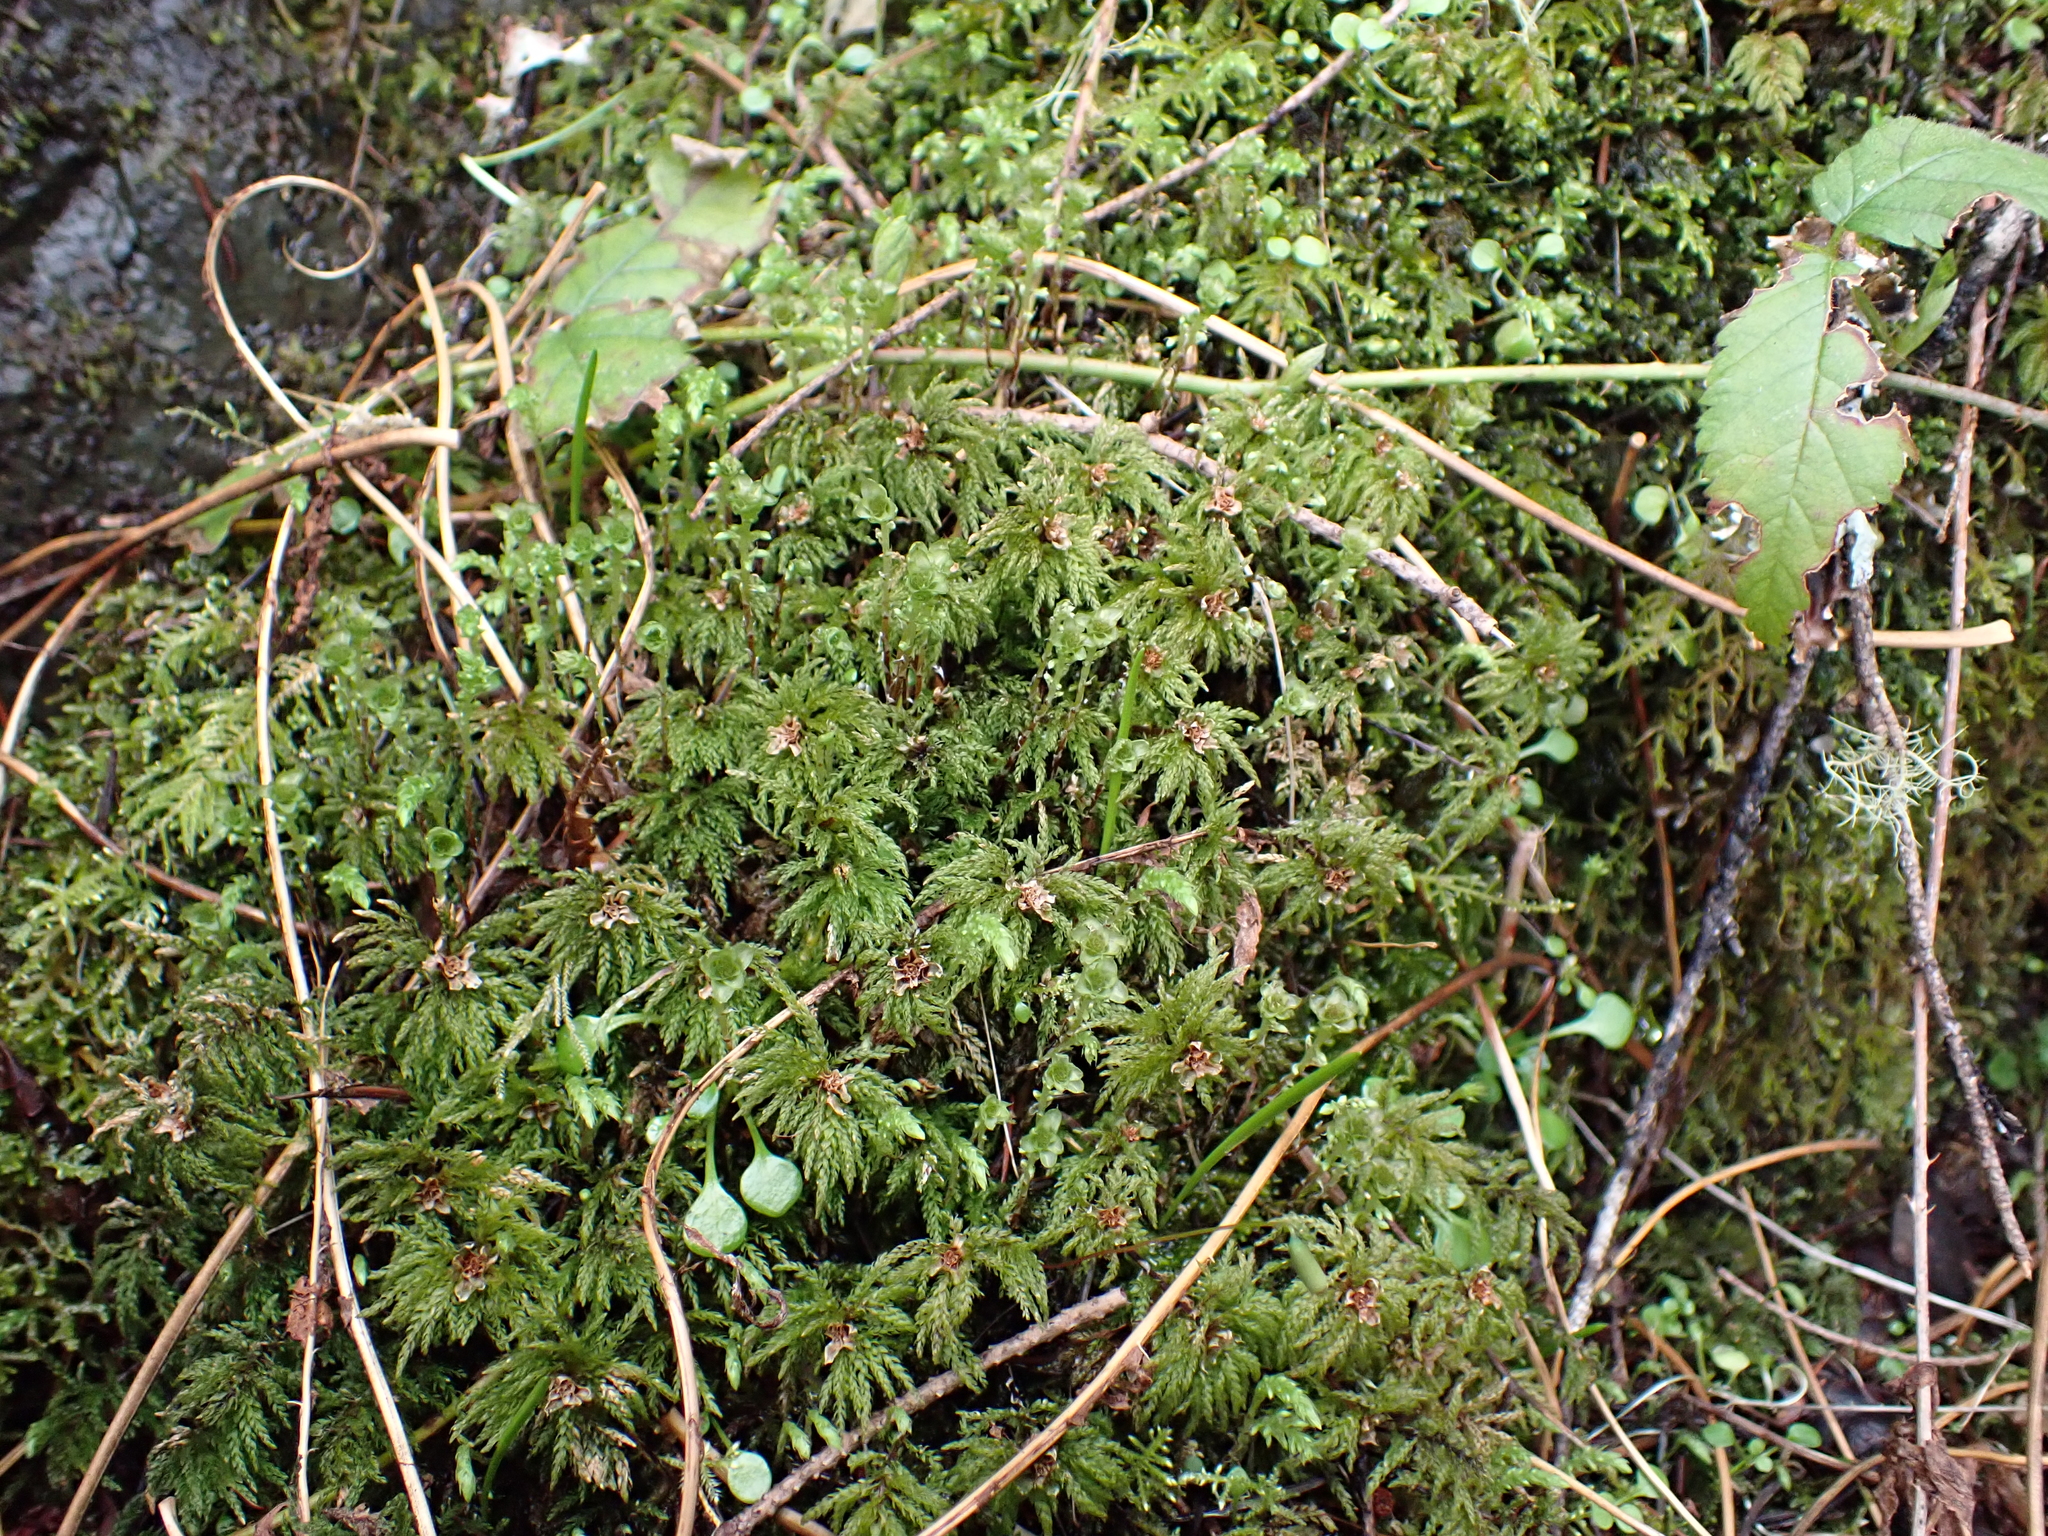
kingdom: Plantae
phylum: Bryophyta
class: Bryopsida
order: Bryales
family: Mniaceae
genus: Leucolepis
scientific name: Leucolepis acanthoneura
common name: Leucolepis umbrella moss
